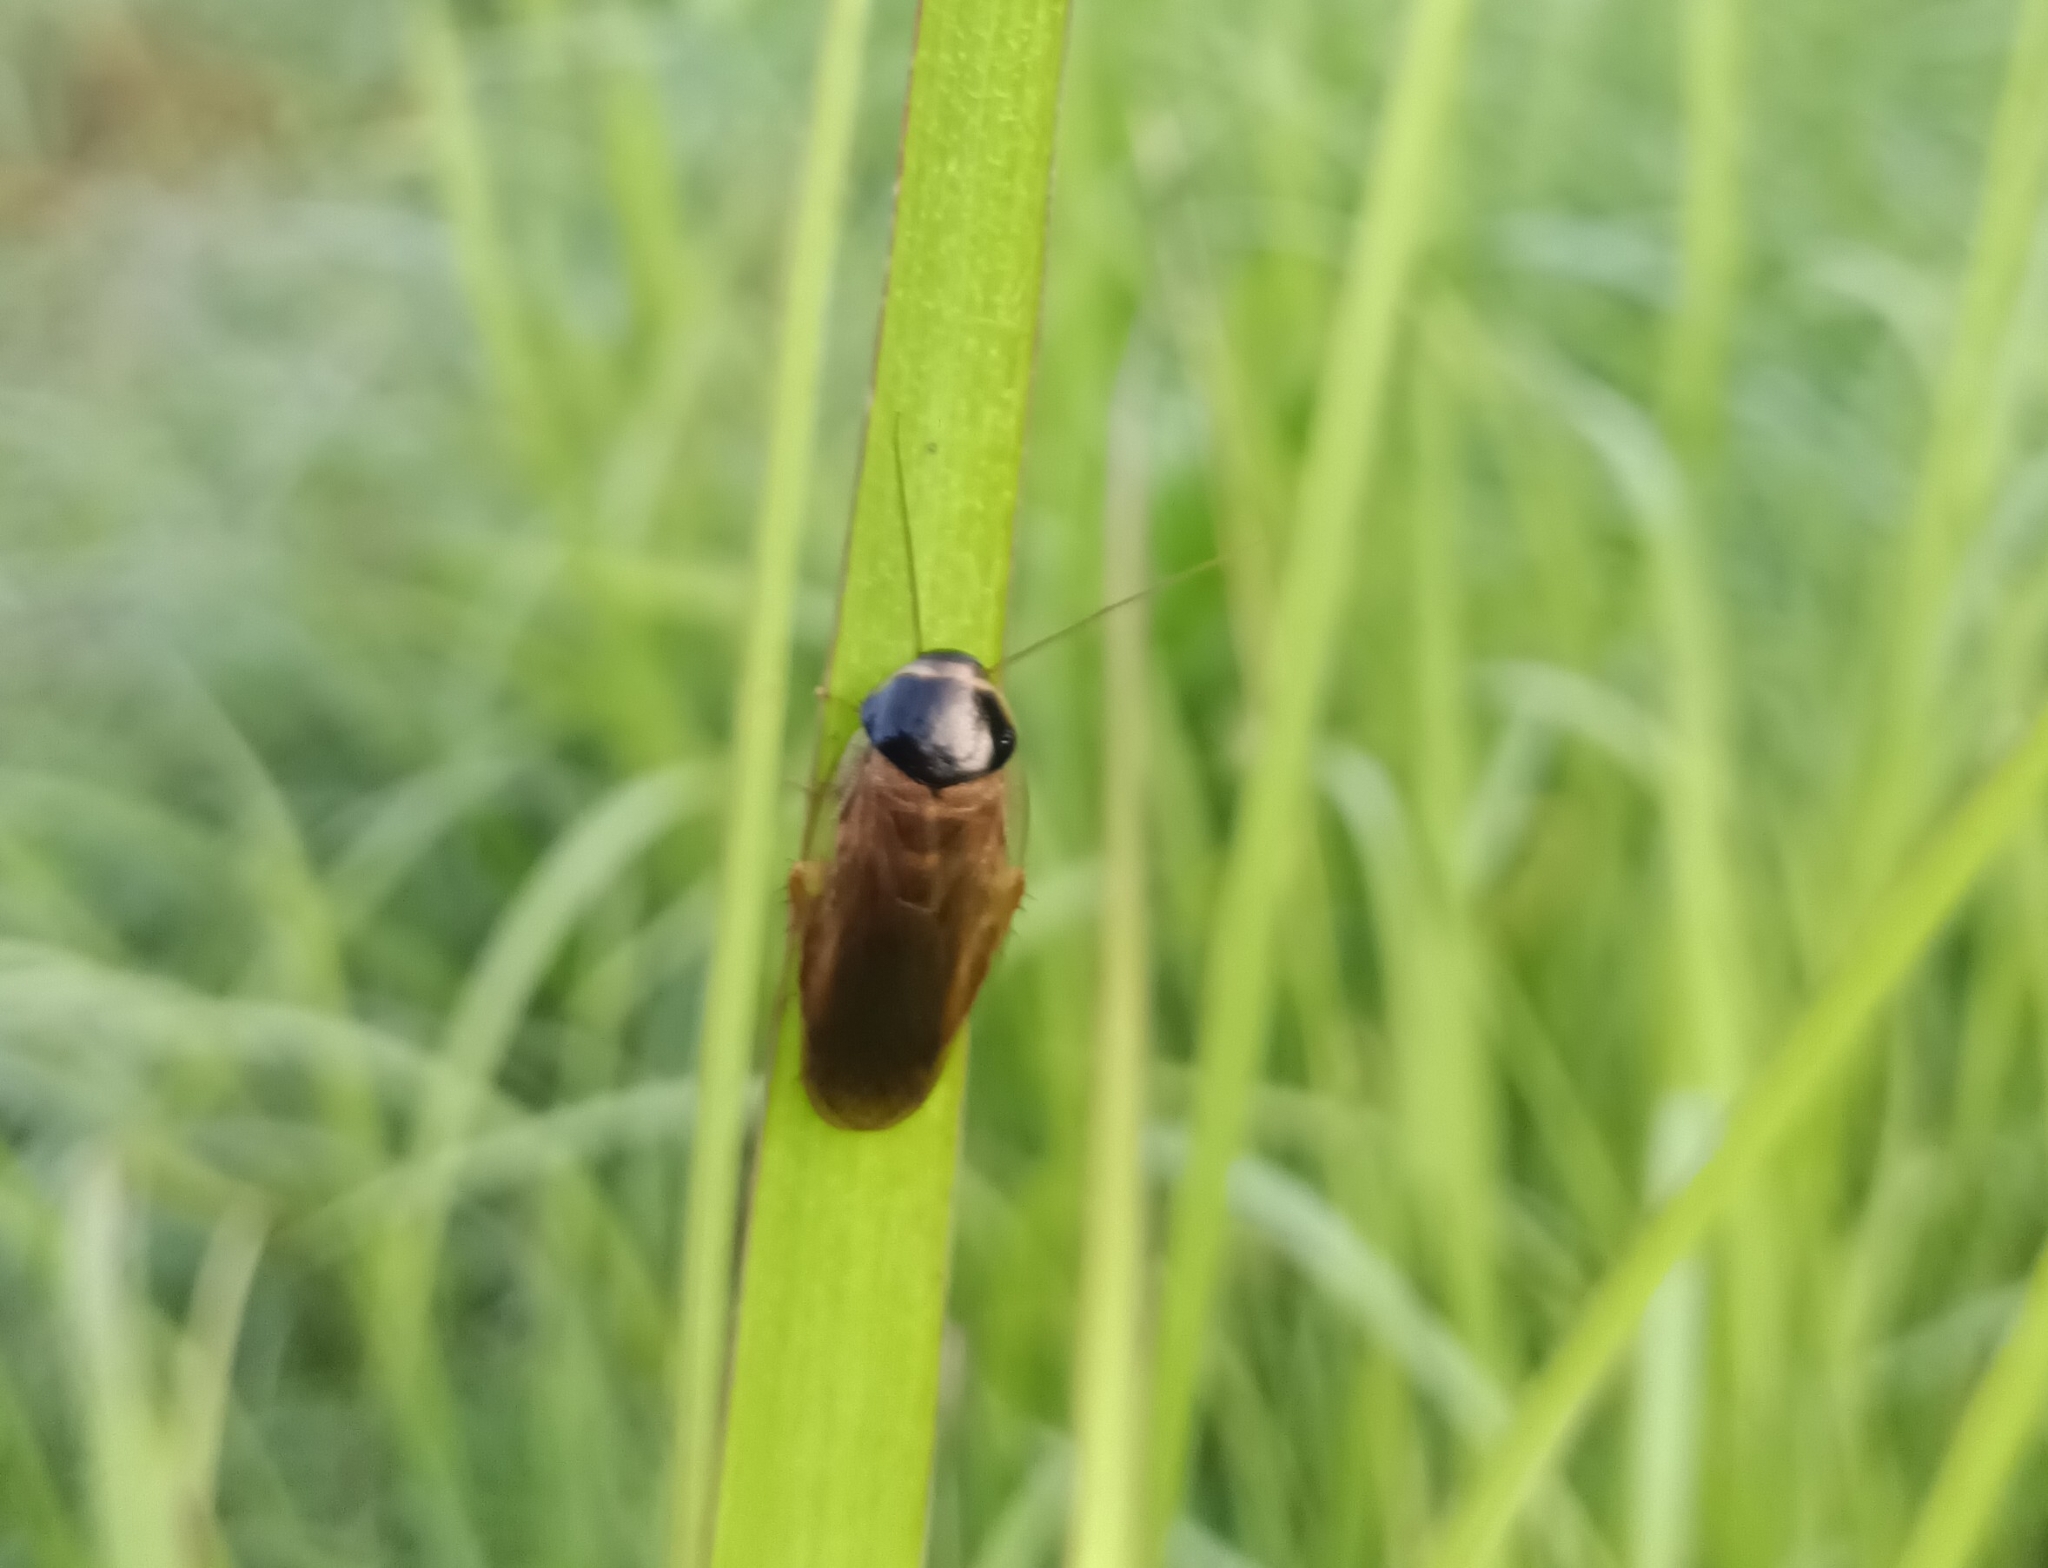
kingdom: Animalia
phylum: Arthropoda
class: Insecta
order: Blattodea
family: Blaberidae
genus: Pycnoscelus
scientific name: Pycnoscelus indicus
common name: Burrowing cockroach
